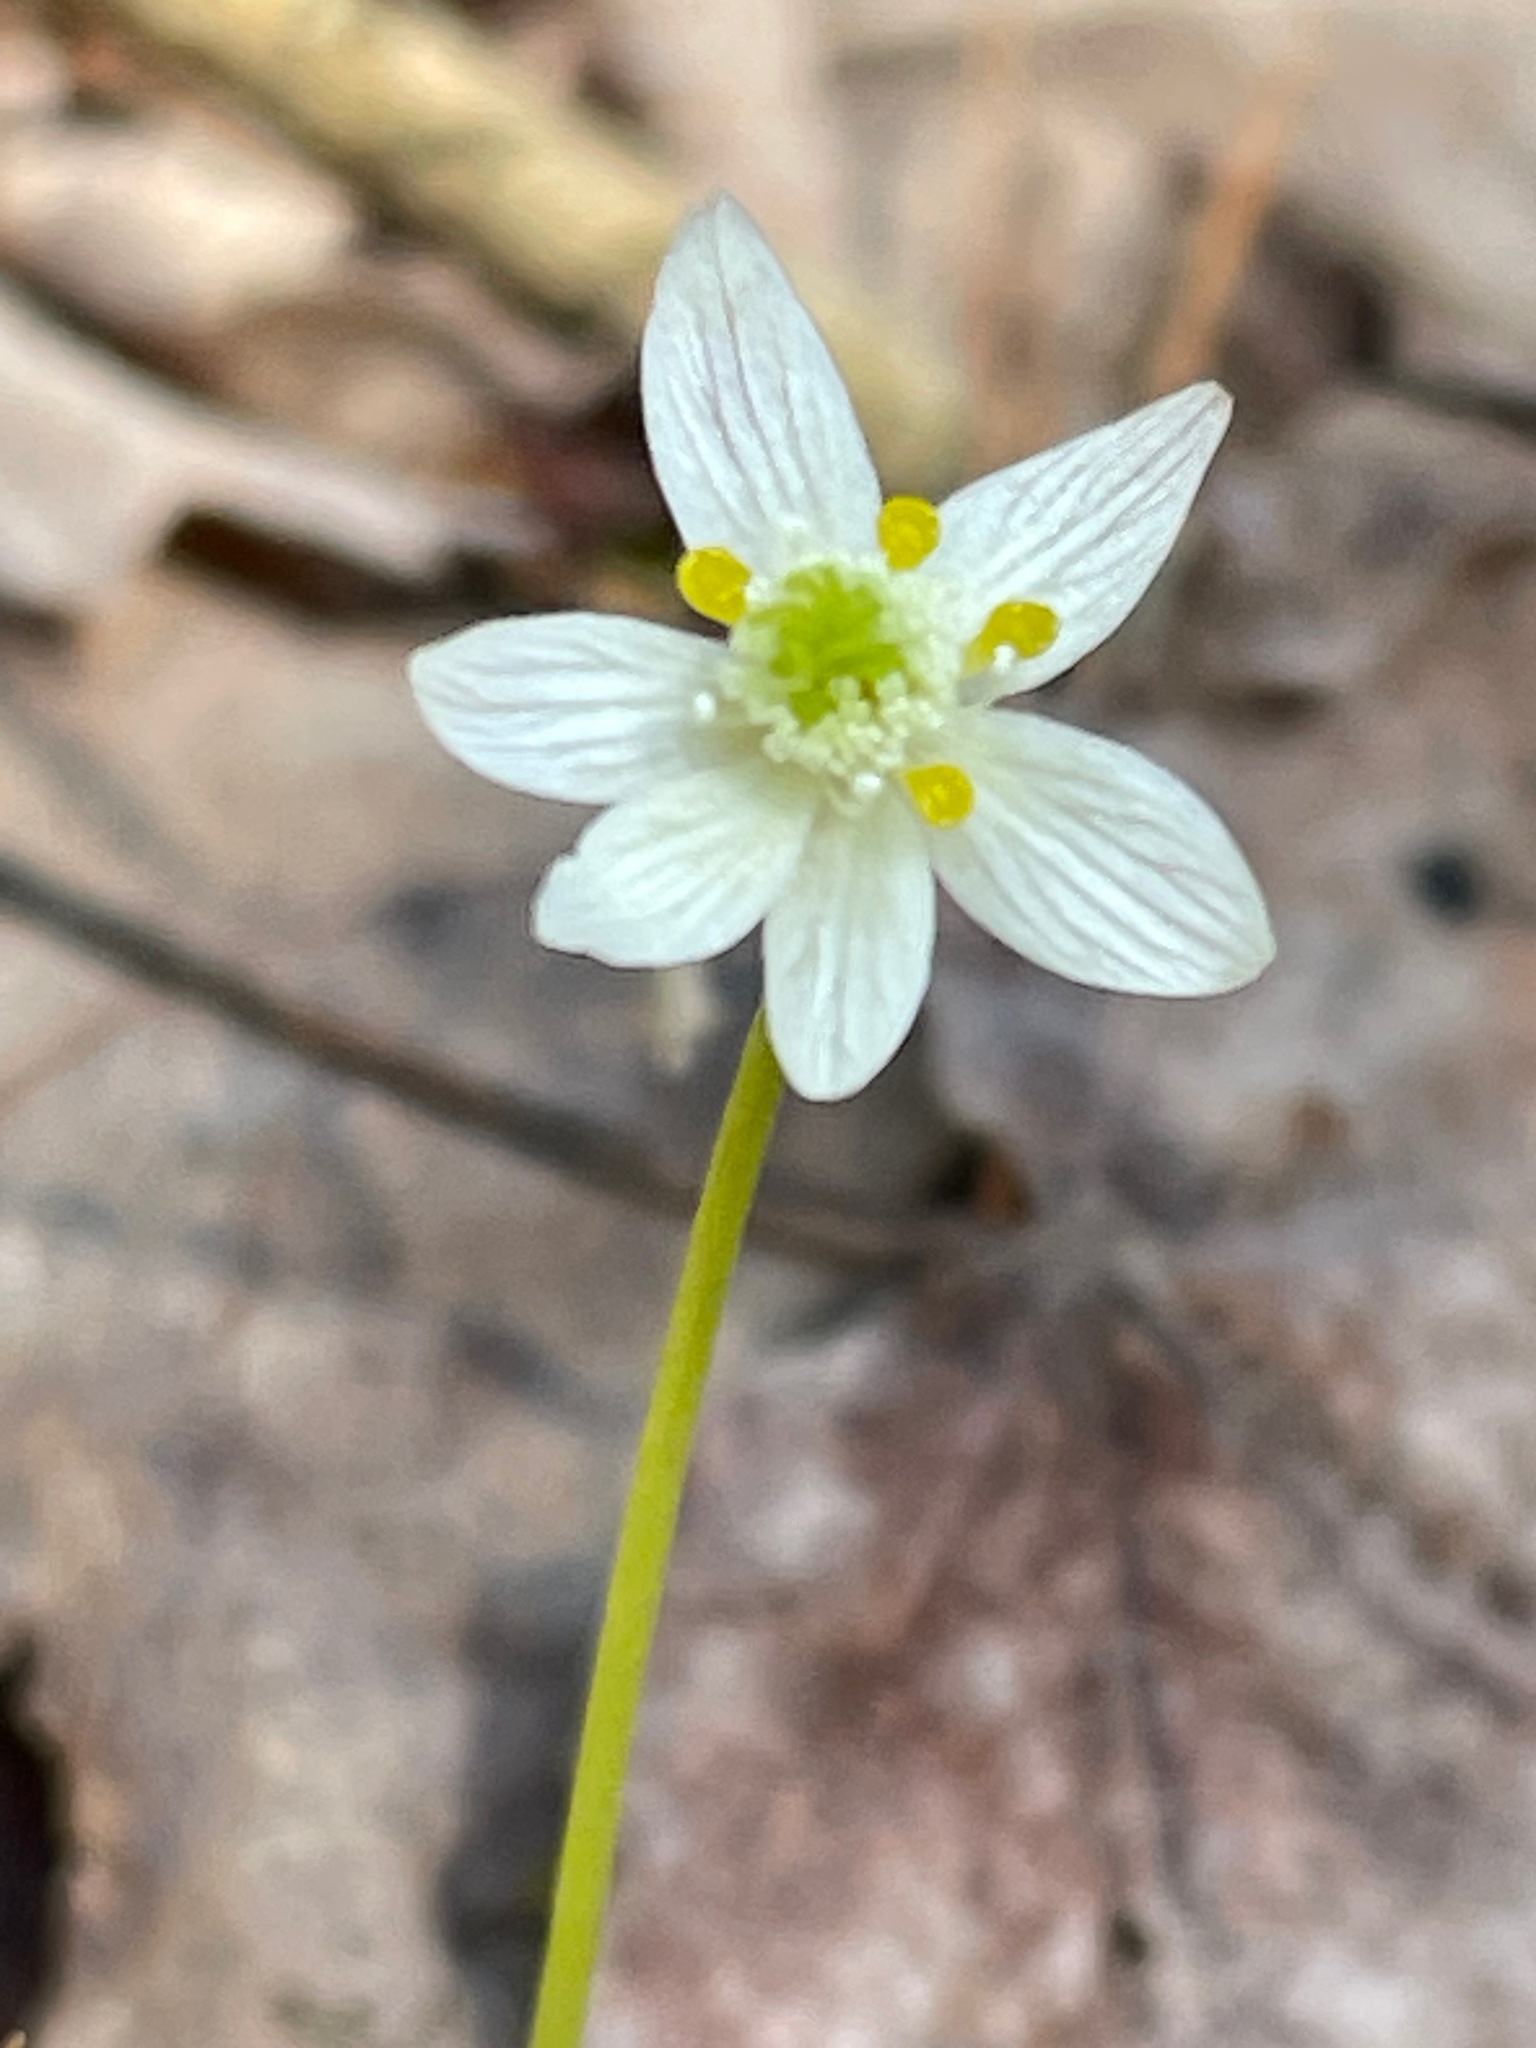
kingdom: Plantae
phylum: Tracheophyta
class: Magnoliopsida
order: Ranunculales
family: Ranunculaceae
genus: Coptis
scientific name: Coptis trifolia
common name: Canker-root
